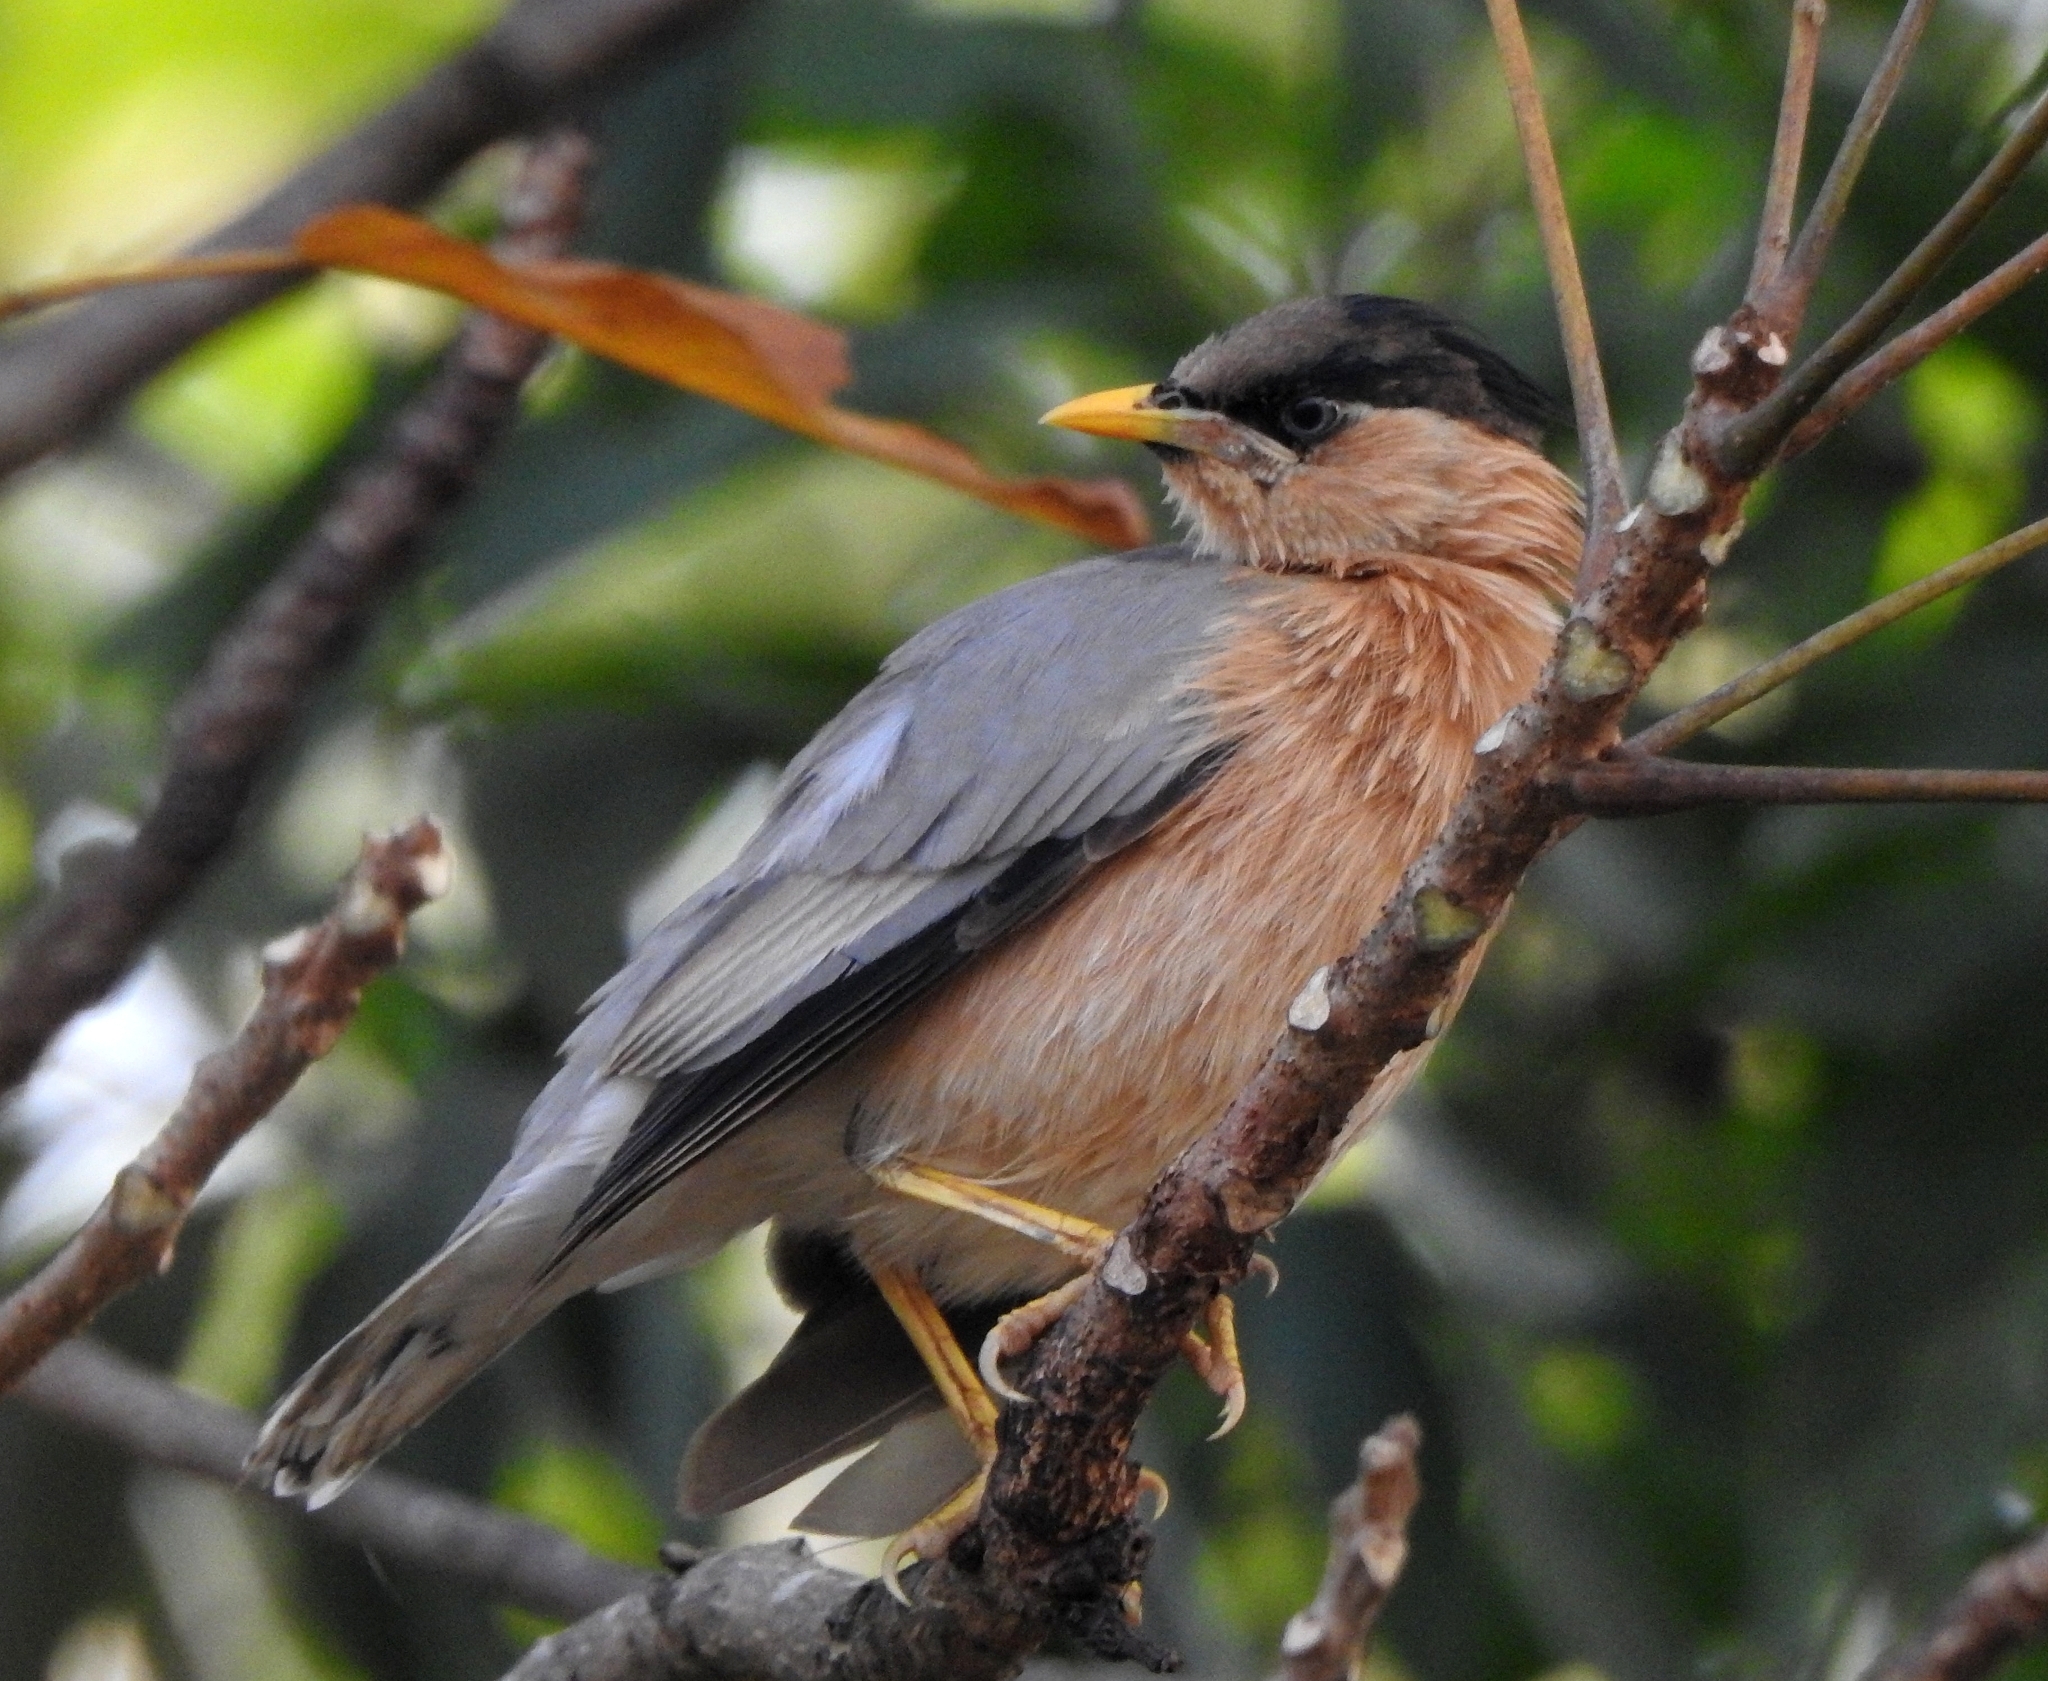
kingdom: Animalia
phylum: Chordata
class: Aves
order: Passeriformes
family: Sturnidae
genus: Sturnia
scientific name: Sturnia pagodarum
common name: Brahminy starling
